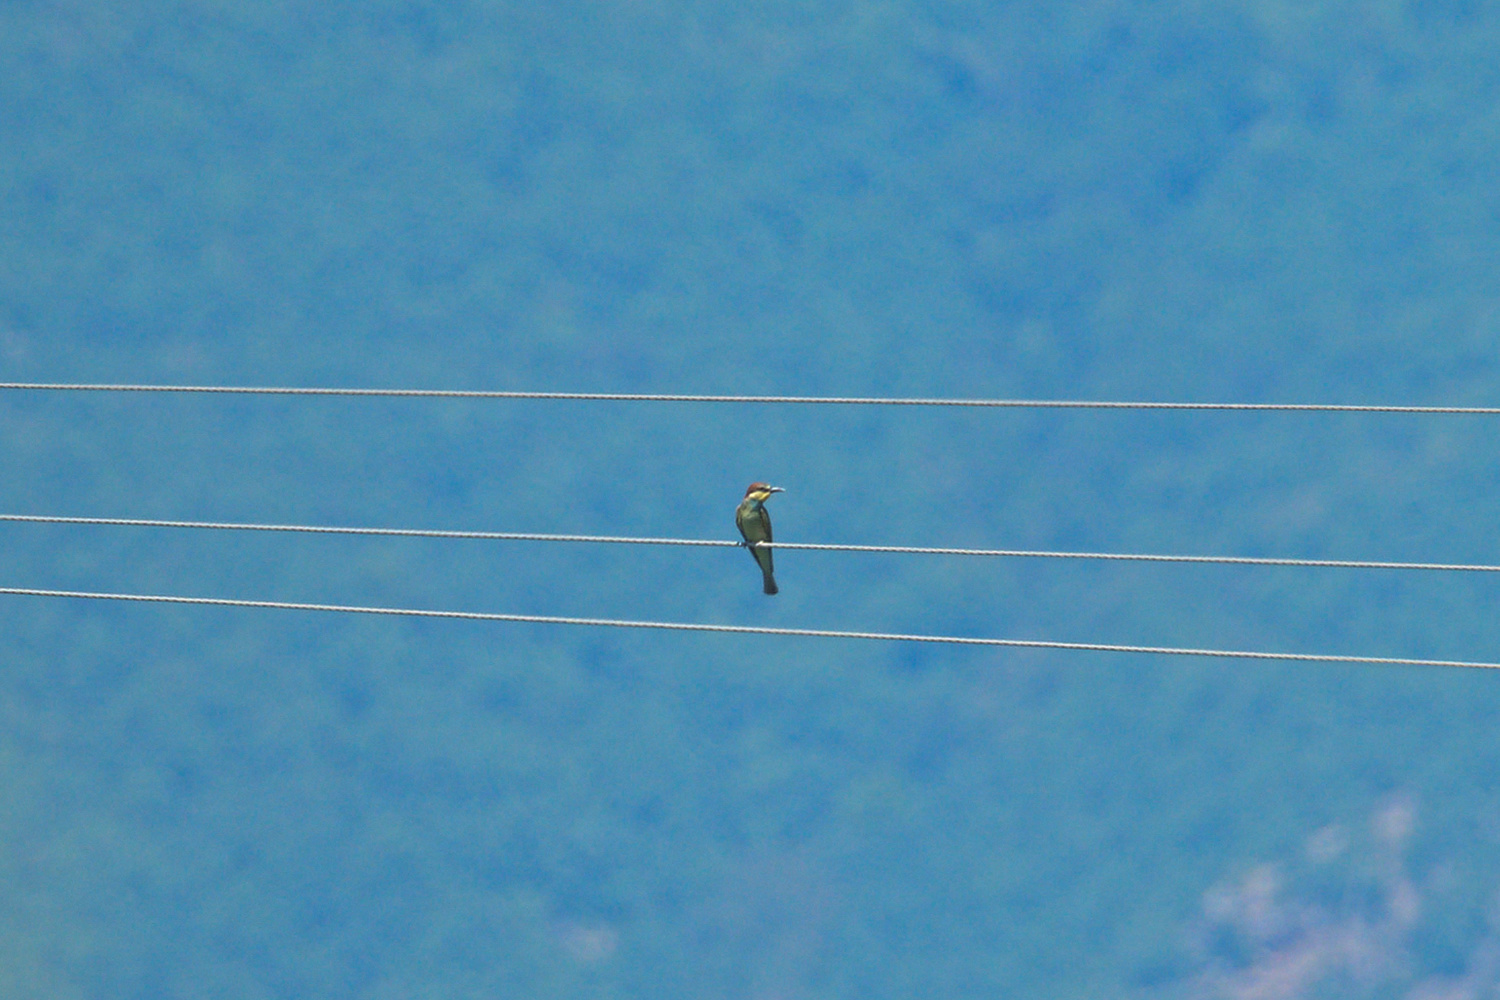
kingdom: Animalia
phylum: Chordata
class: Aves
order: Coraciiformes
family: Meropidae
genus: Merops
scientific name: Merops apiaster
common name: European bee-eater
